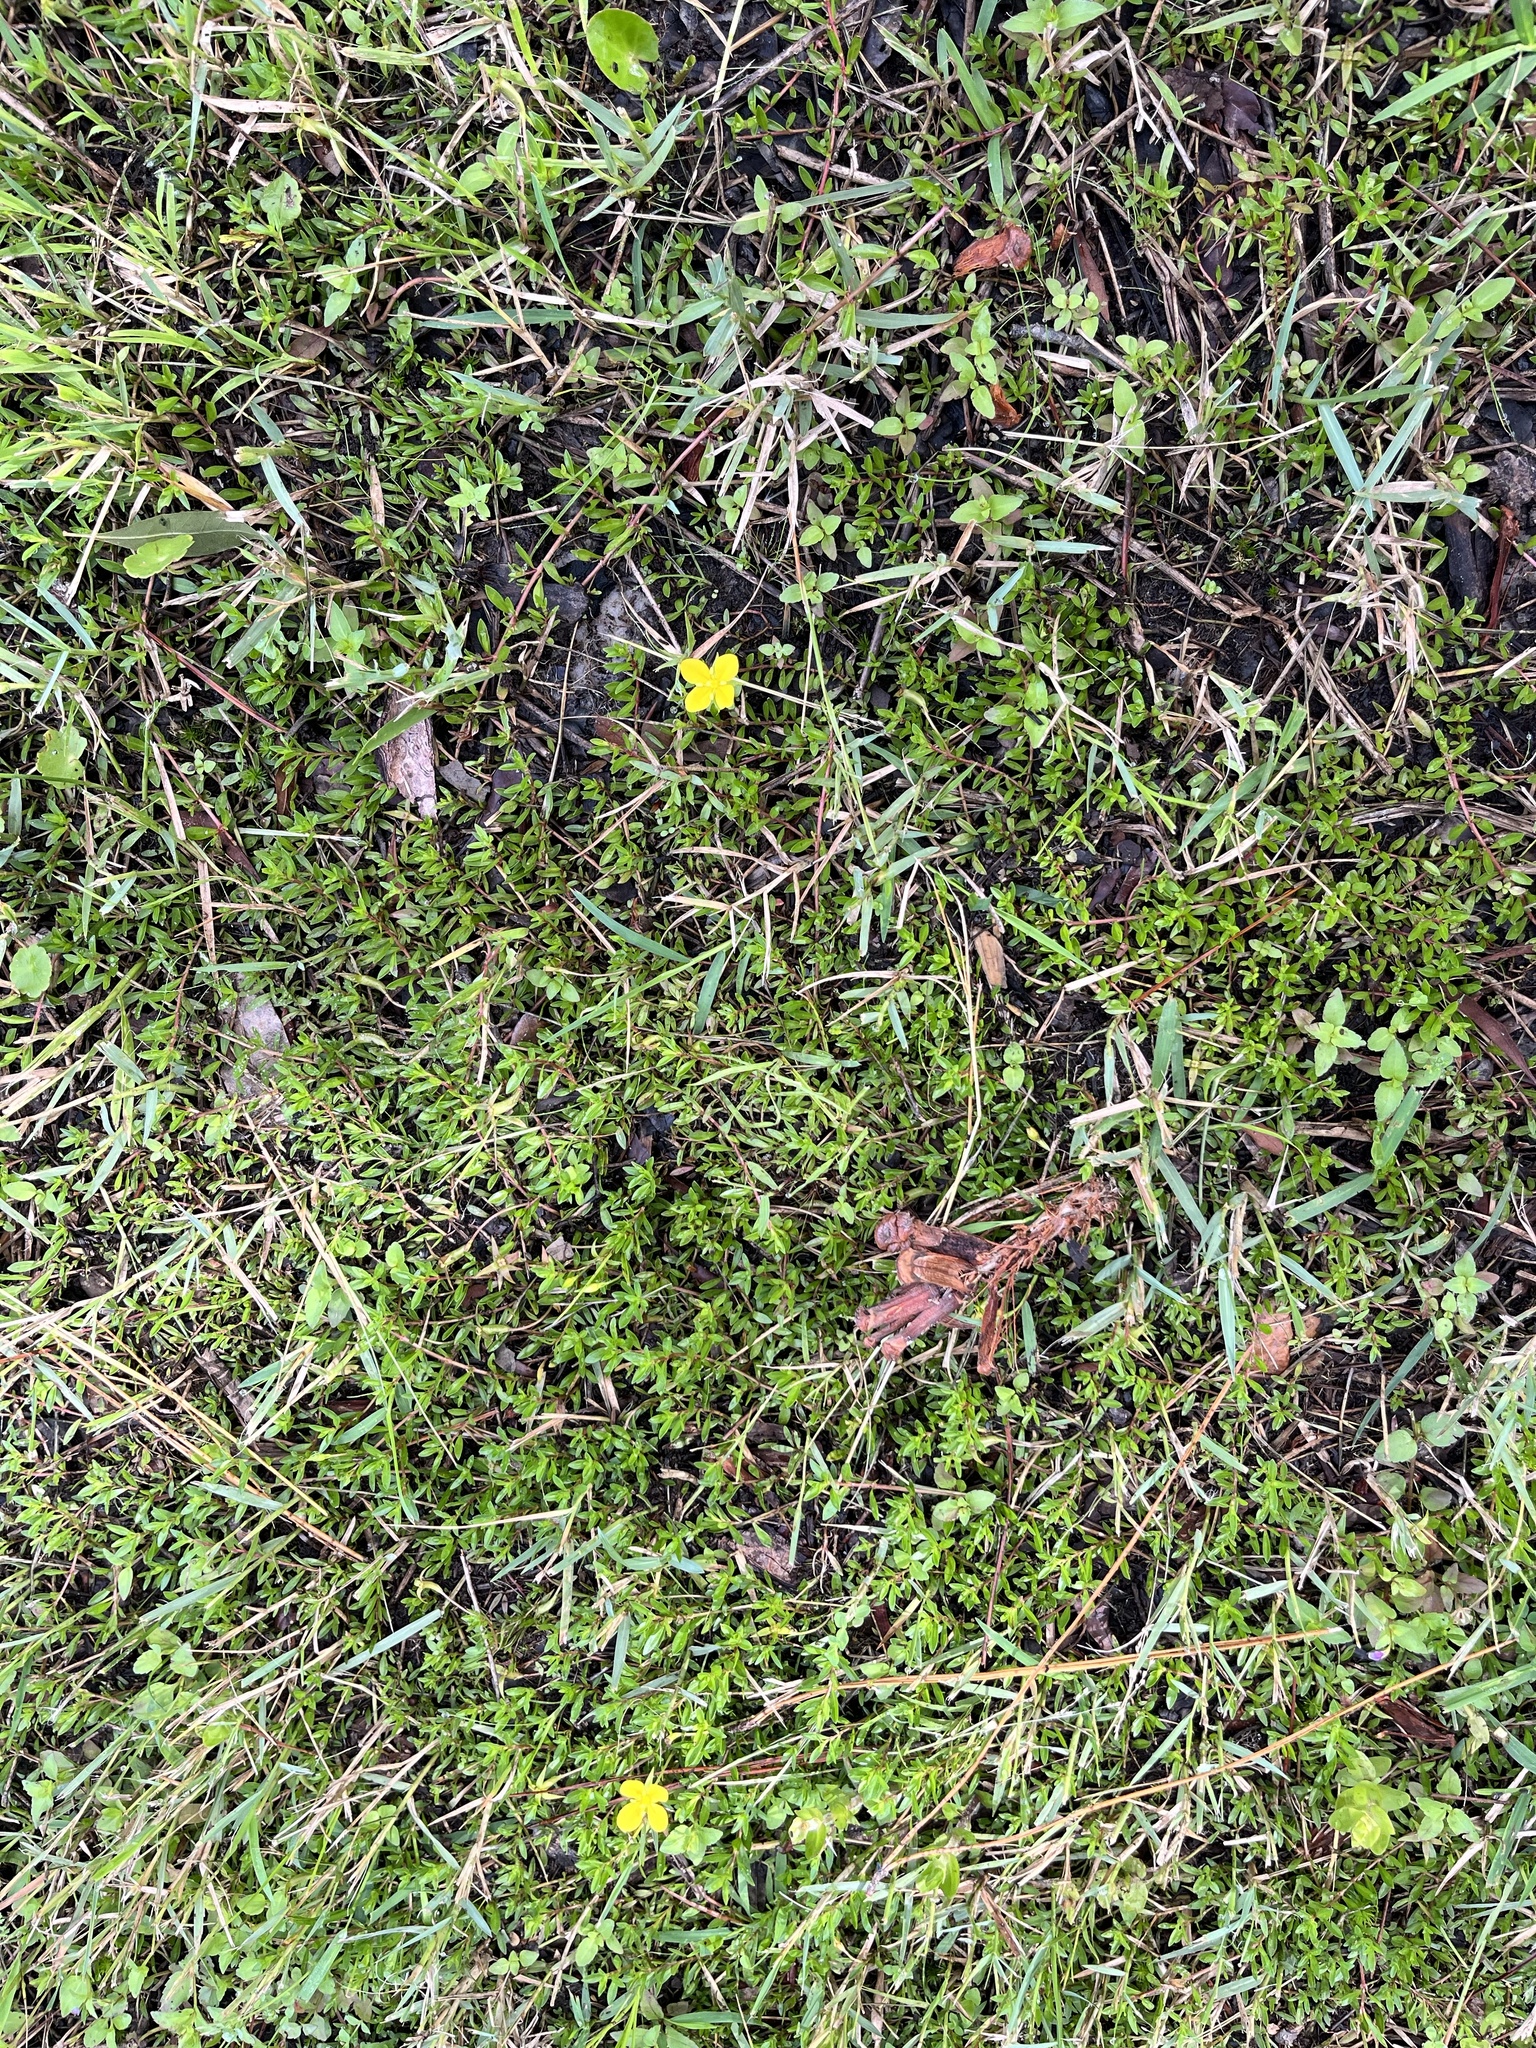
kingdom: Plantae
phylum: Tracheophyta
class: Magnoliopsida
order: Myrtales
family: Onagraceae
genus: Ludwigia
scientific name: Ludwigia arcuata
